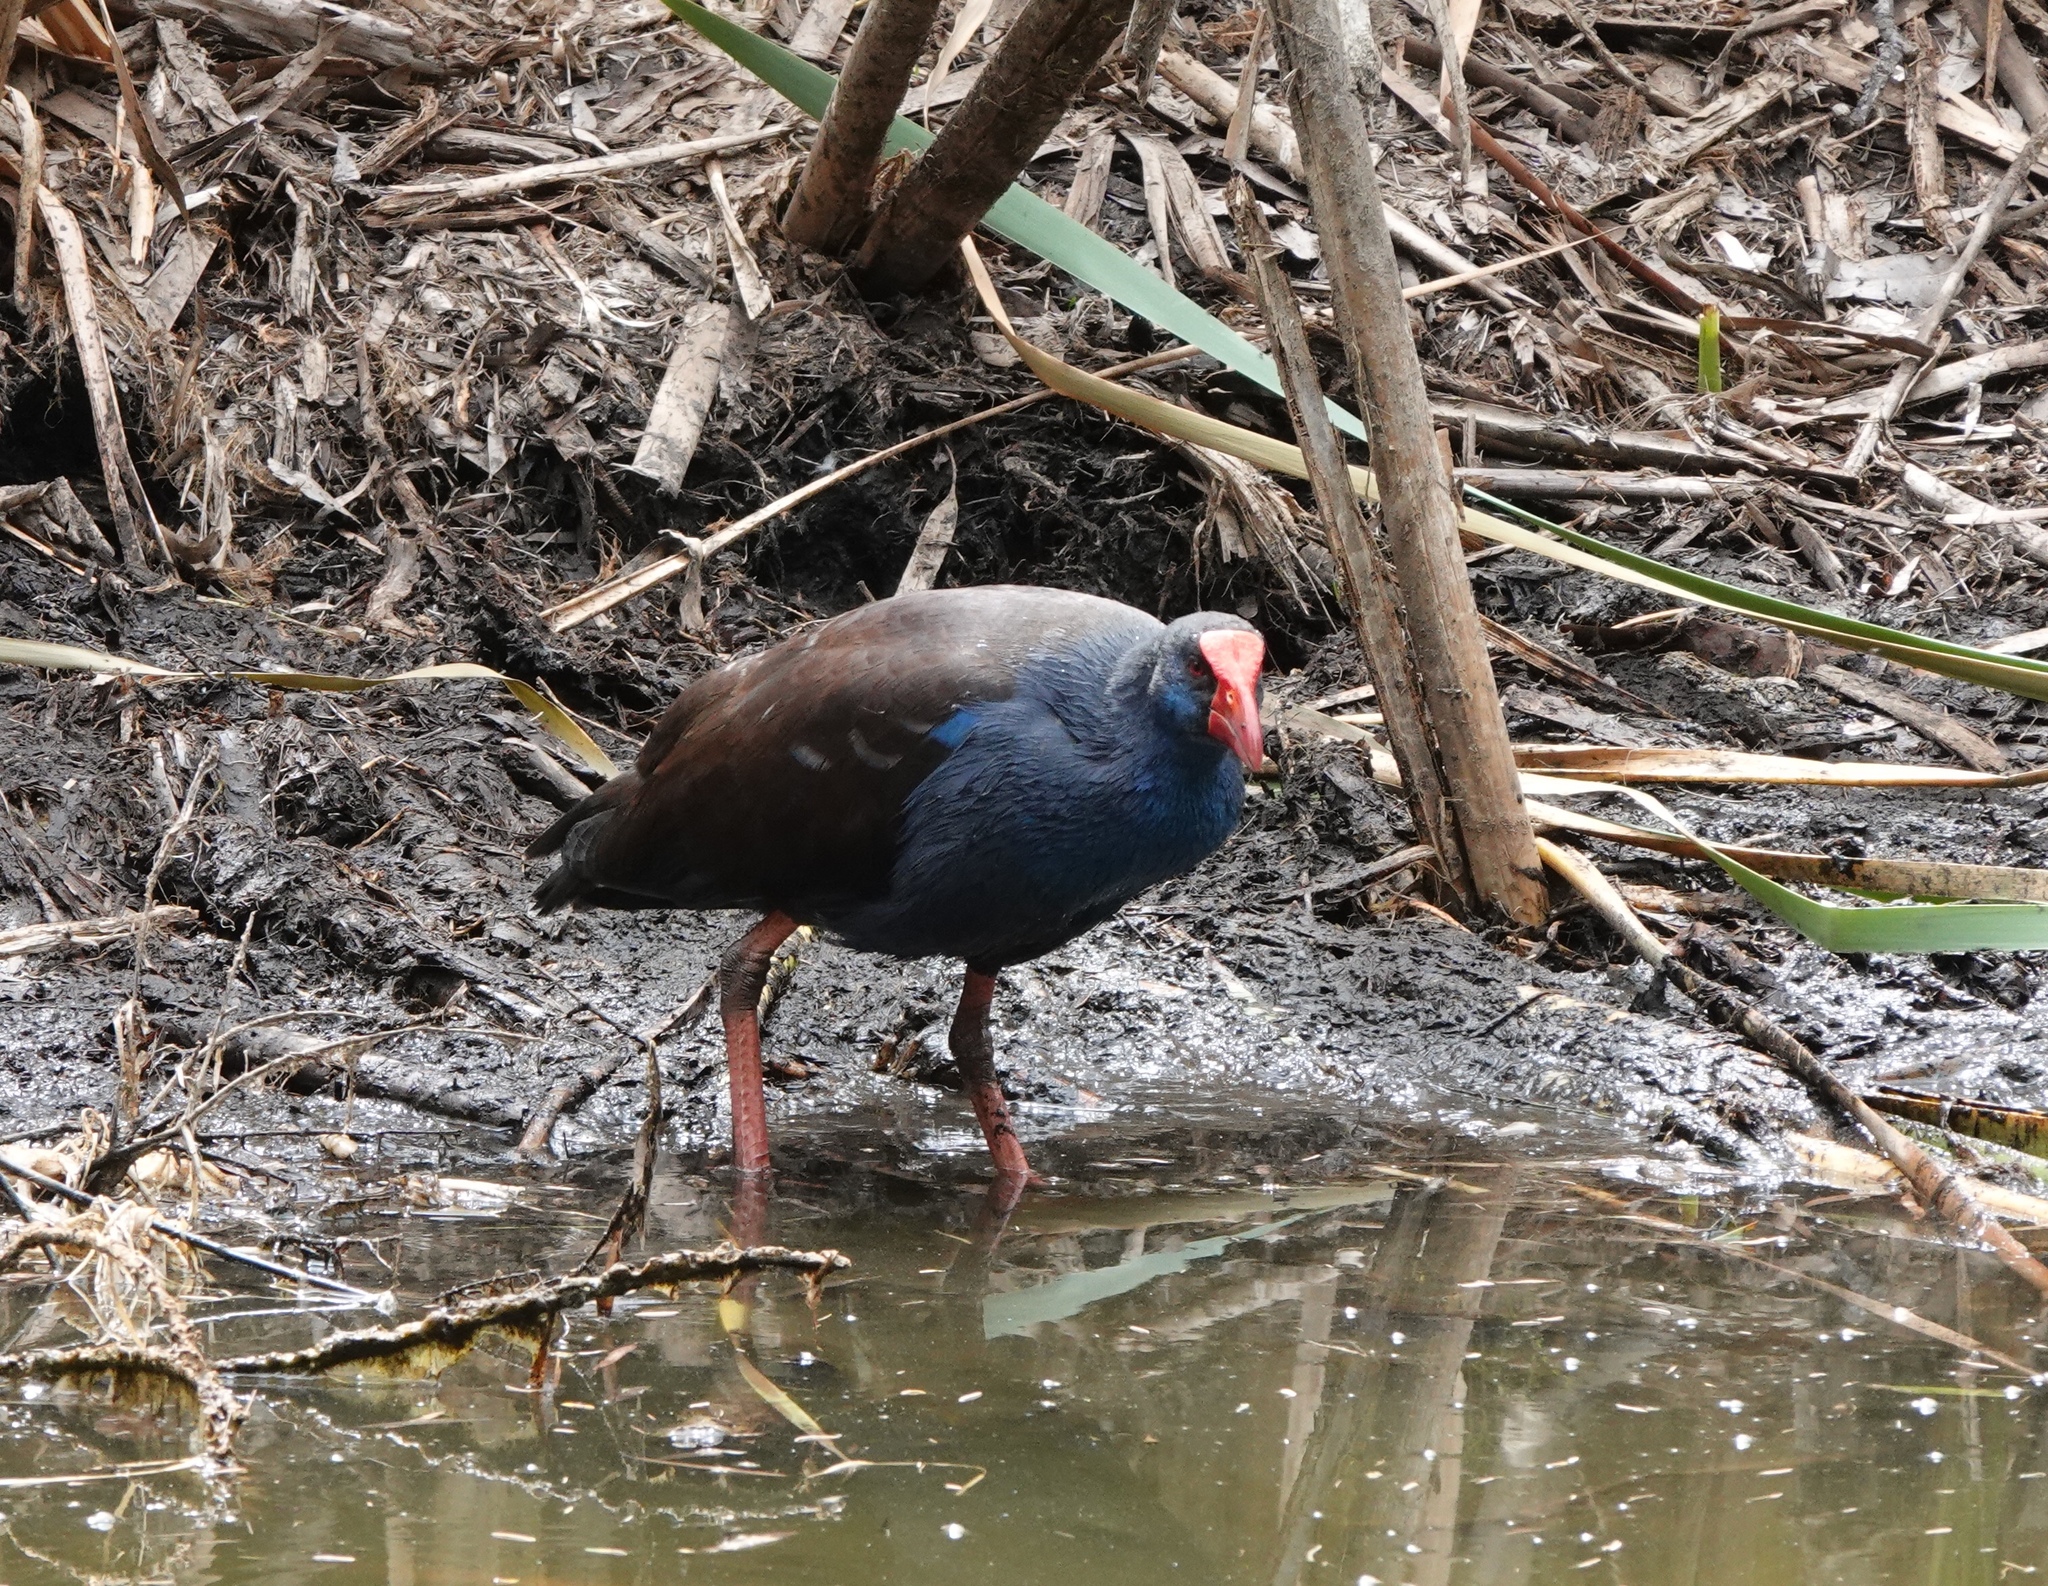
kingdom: Animalia
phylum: Chordata
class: Aves
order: Gruiformes
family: Rallidae
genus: Porphyrio
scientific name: Porphyrio melanotus
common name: Australasian swamphen
